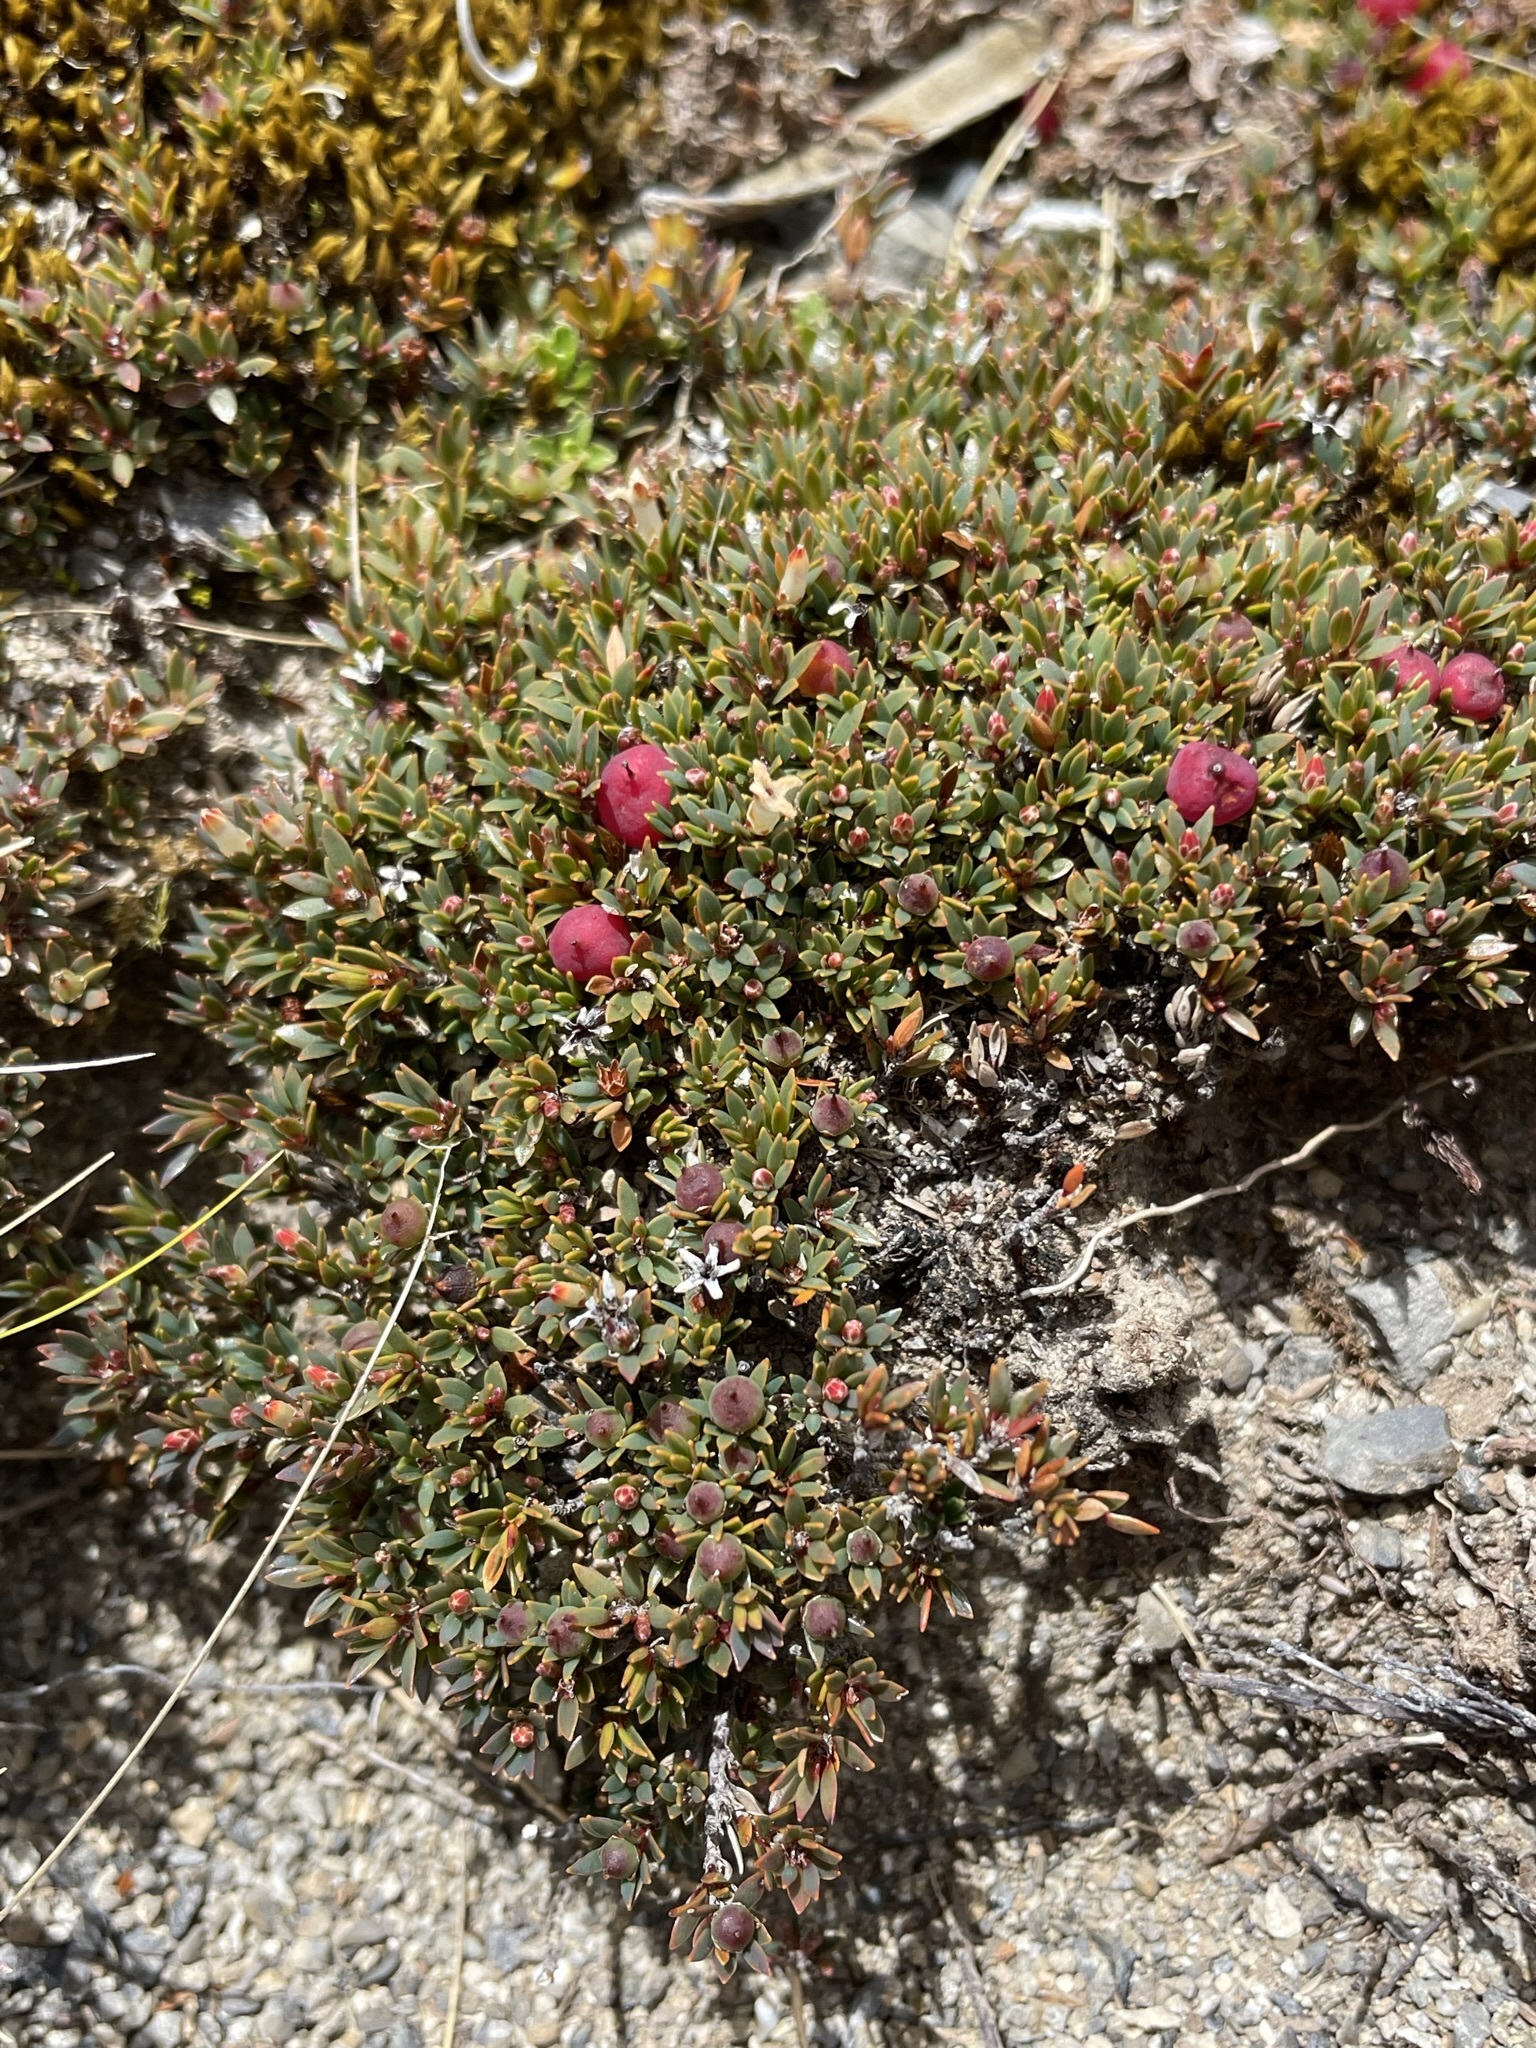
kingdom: Plantae
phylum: Tracheophyta
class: Magnoliopsida
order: Ericales
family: Ericaceae
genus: Pentachondra
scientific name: Pentachondra pumila
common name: Carpet-heath
